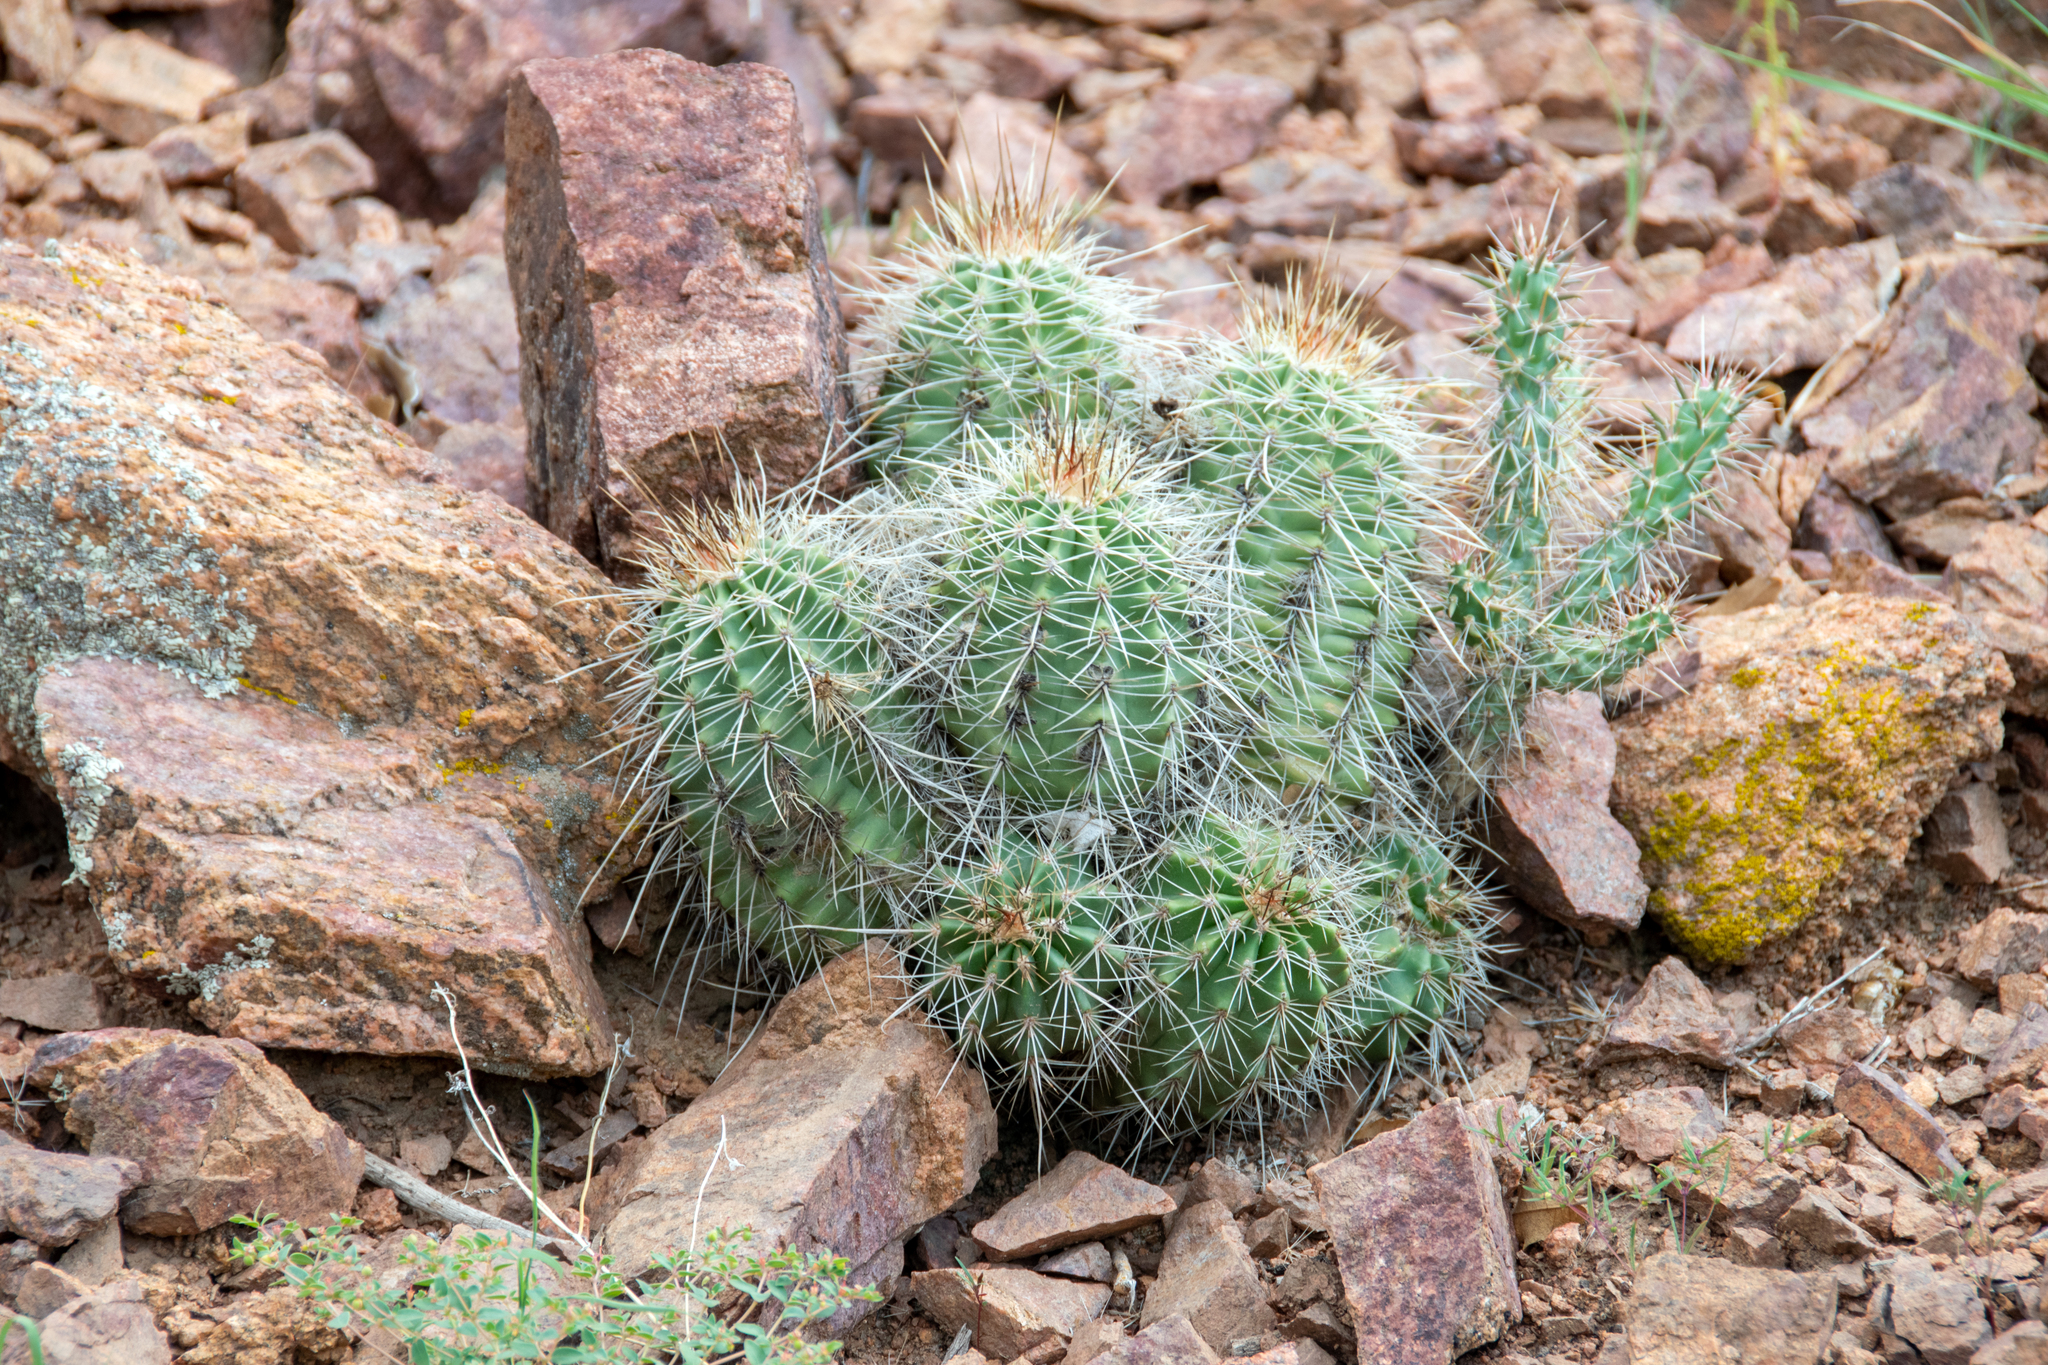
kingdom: Plantae
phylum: Tracheophyta
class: Magnoliopsida
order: Caryophyllales
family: Cactaceae
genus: Echinocereus
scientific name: Echinocereus coccineus
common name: Scarlet hedgehog cactus
